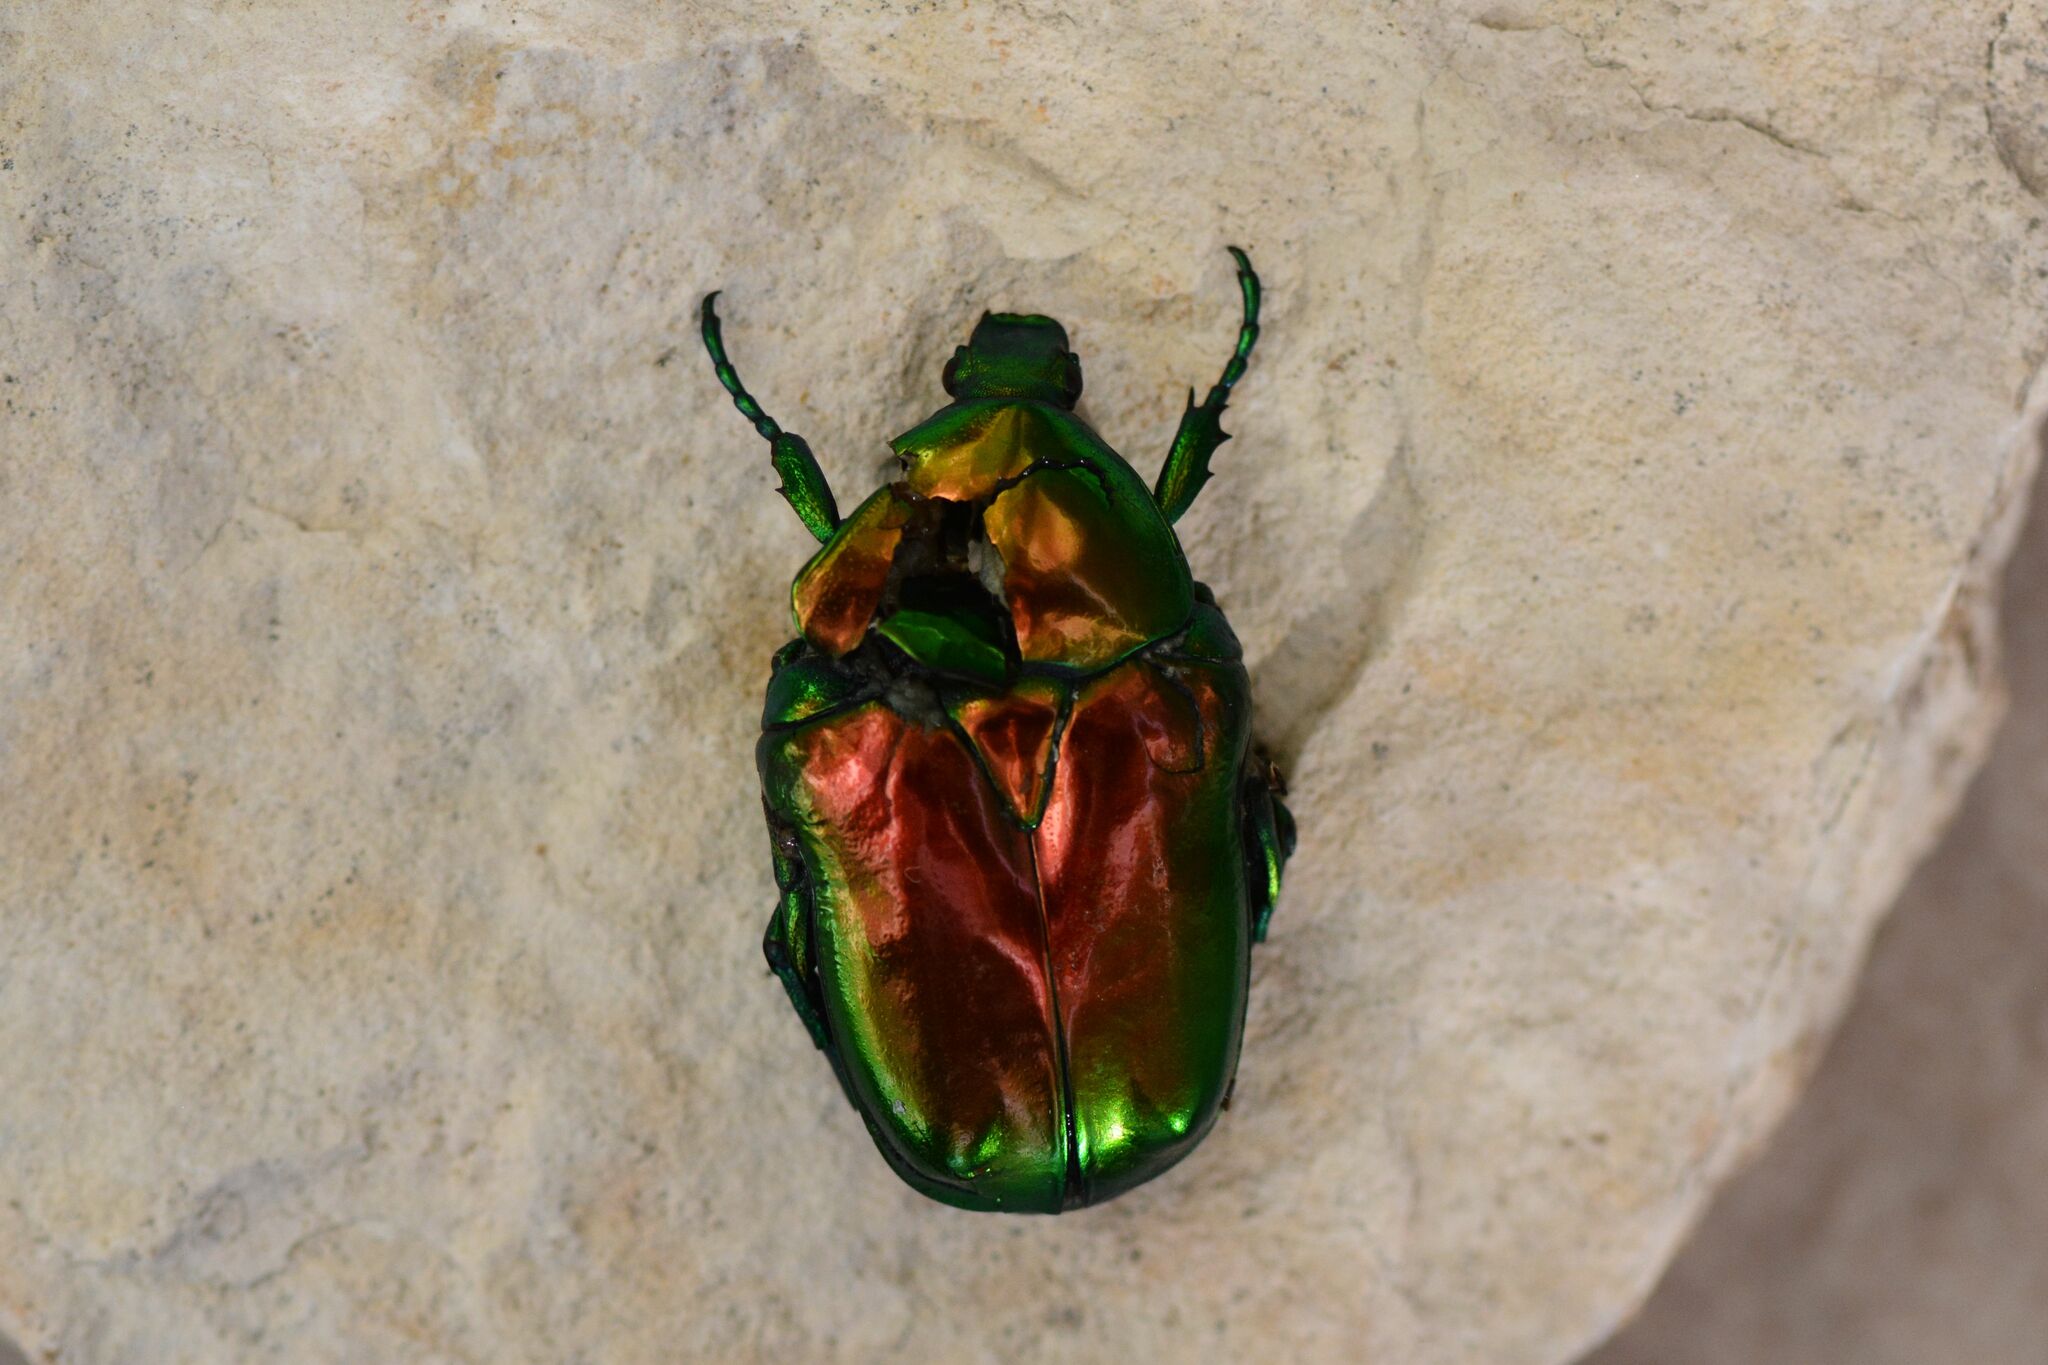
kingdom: Animalia
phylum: Arthropoda
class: Insecta
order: Coleoptera
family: Scarabaeidae
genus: Protaetia
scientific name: Protaetia speciosissima
